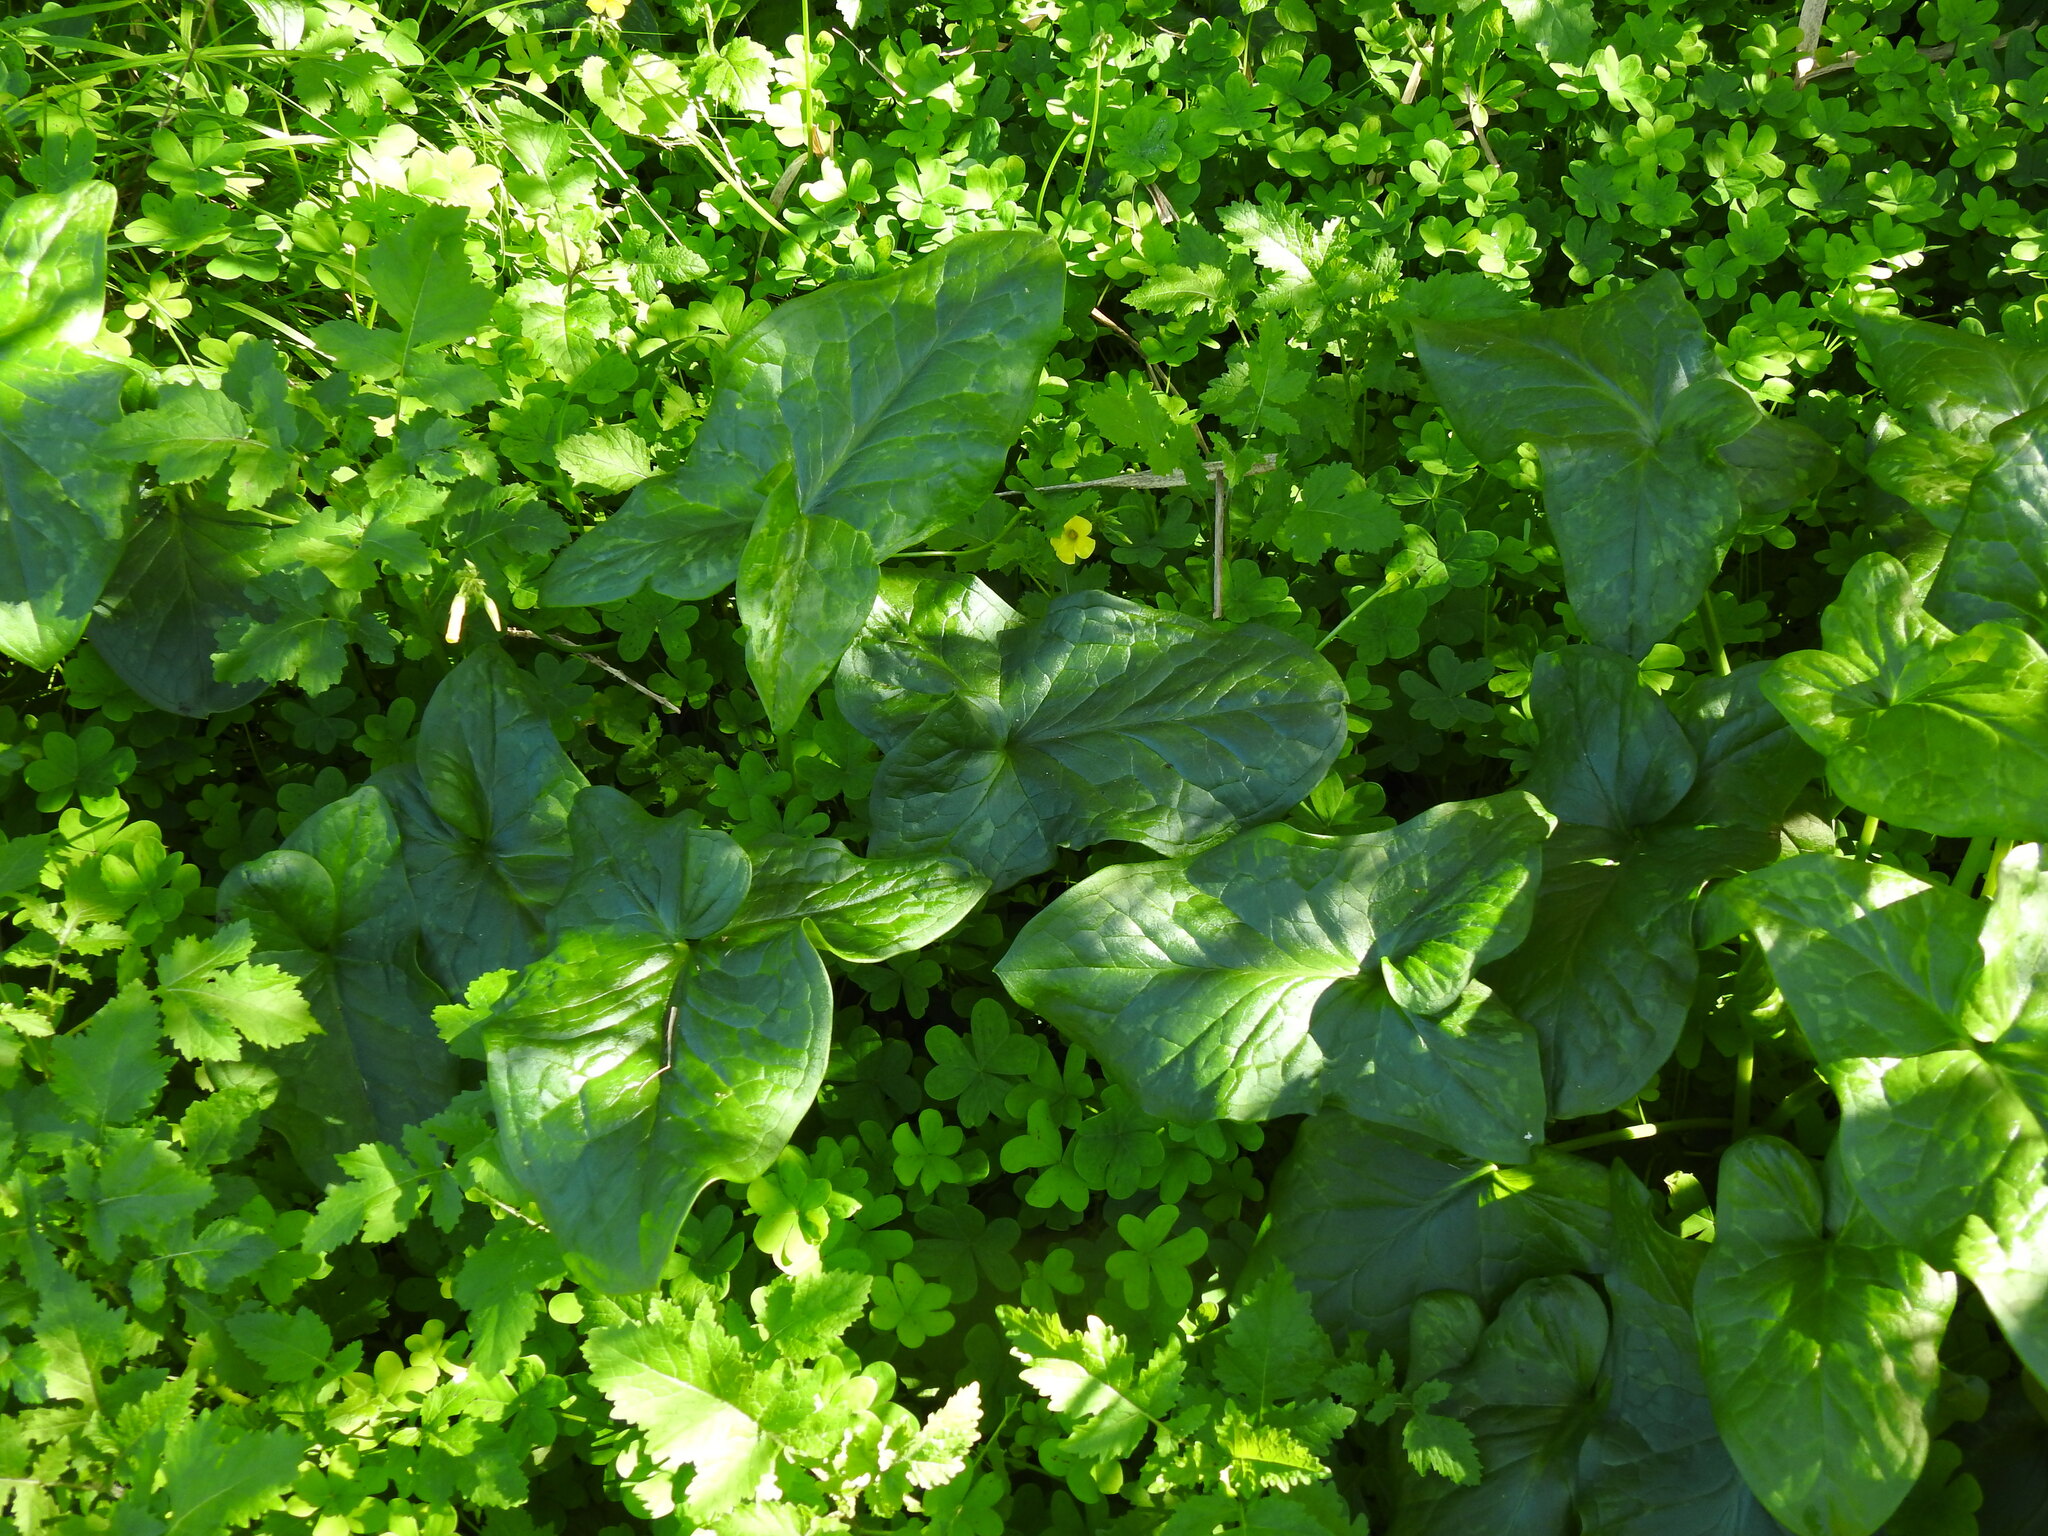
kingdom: Plantae
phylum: Tracheophyta
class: Liliopsida
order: Alismatales
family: Araceae
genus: Arum
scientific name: Arum italicum
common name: Italian lords-and-ladies
